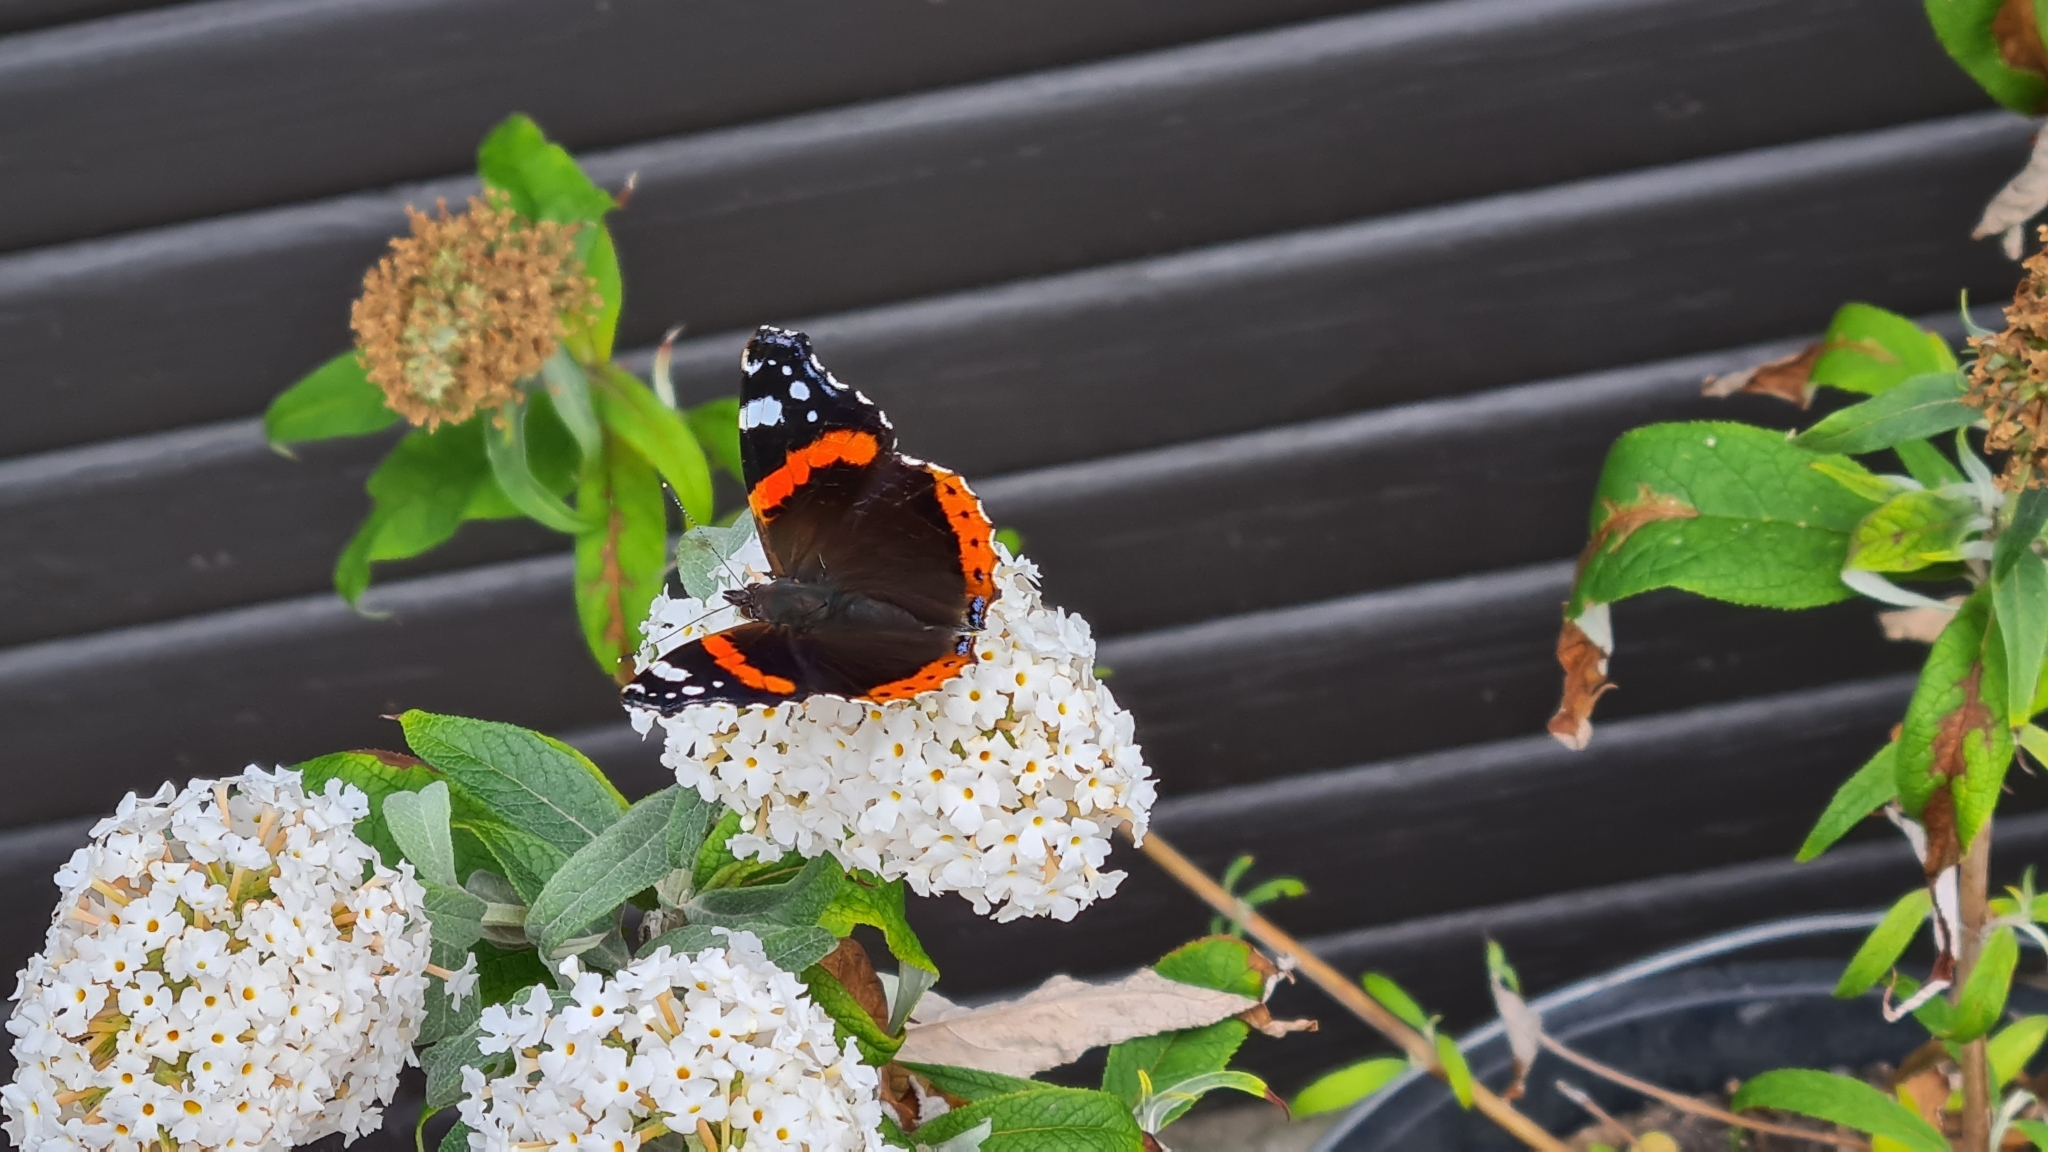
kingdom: Animalia
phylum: Arthropoda
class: Insecta
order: Lepidoptera
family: Nymphalidae
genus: Vanessa
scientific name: Vanessa atalanta
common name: Red admiral
